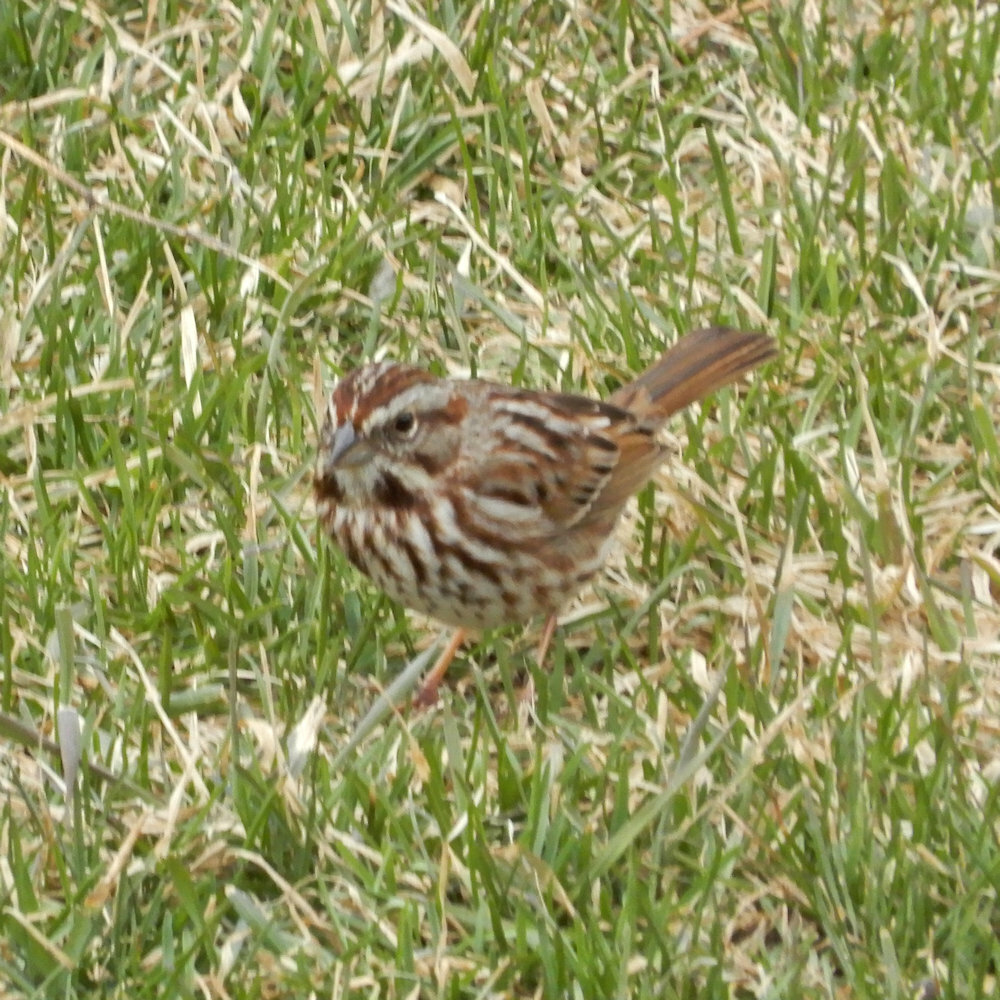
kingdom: Animalia
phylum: Chordata
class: Aves
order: Passeriformes
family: Passerellidae
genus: Melospiza
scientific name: Melospiza melodia
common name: Song sparrow
